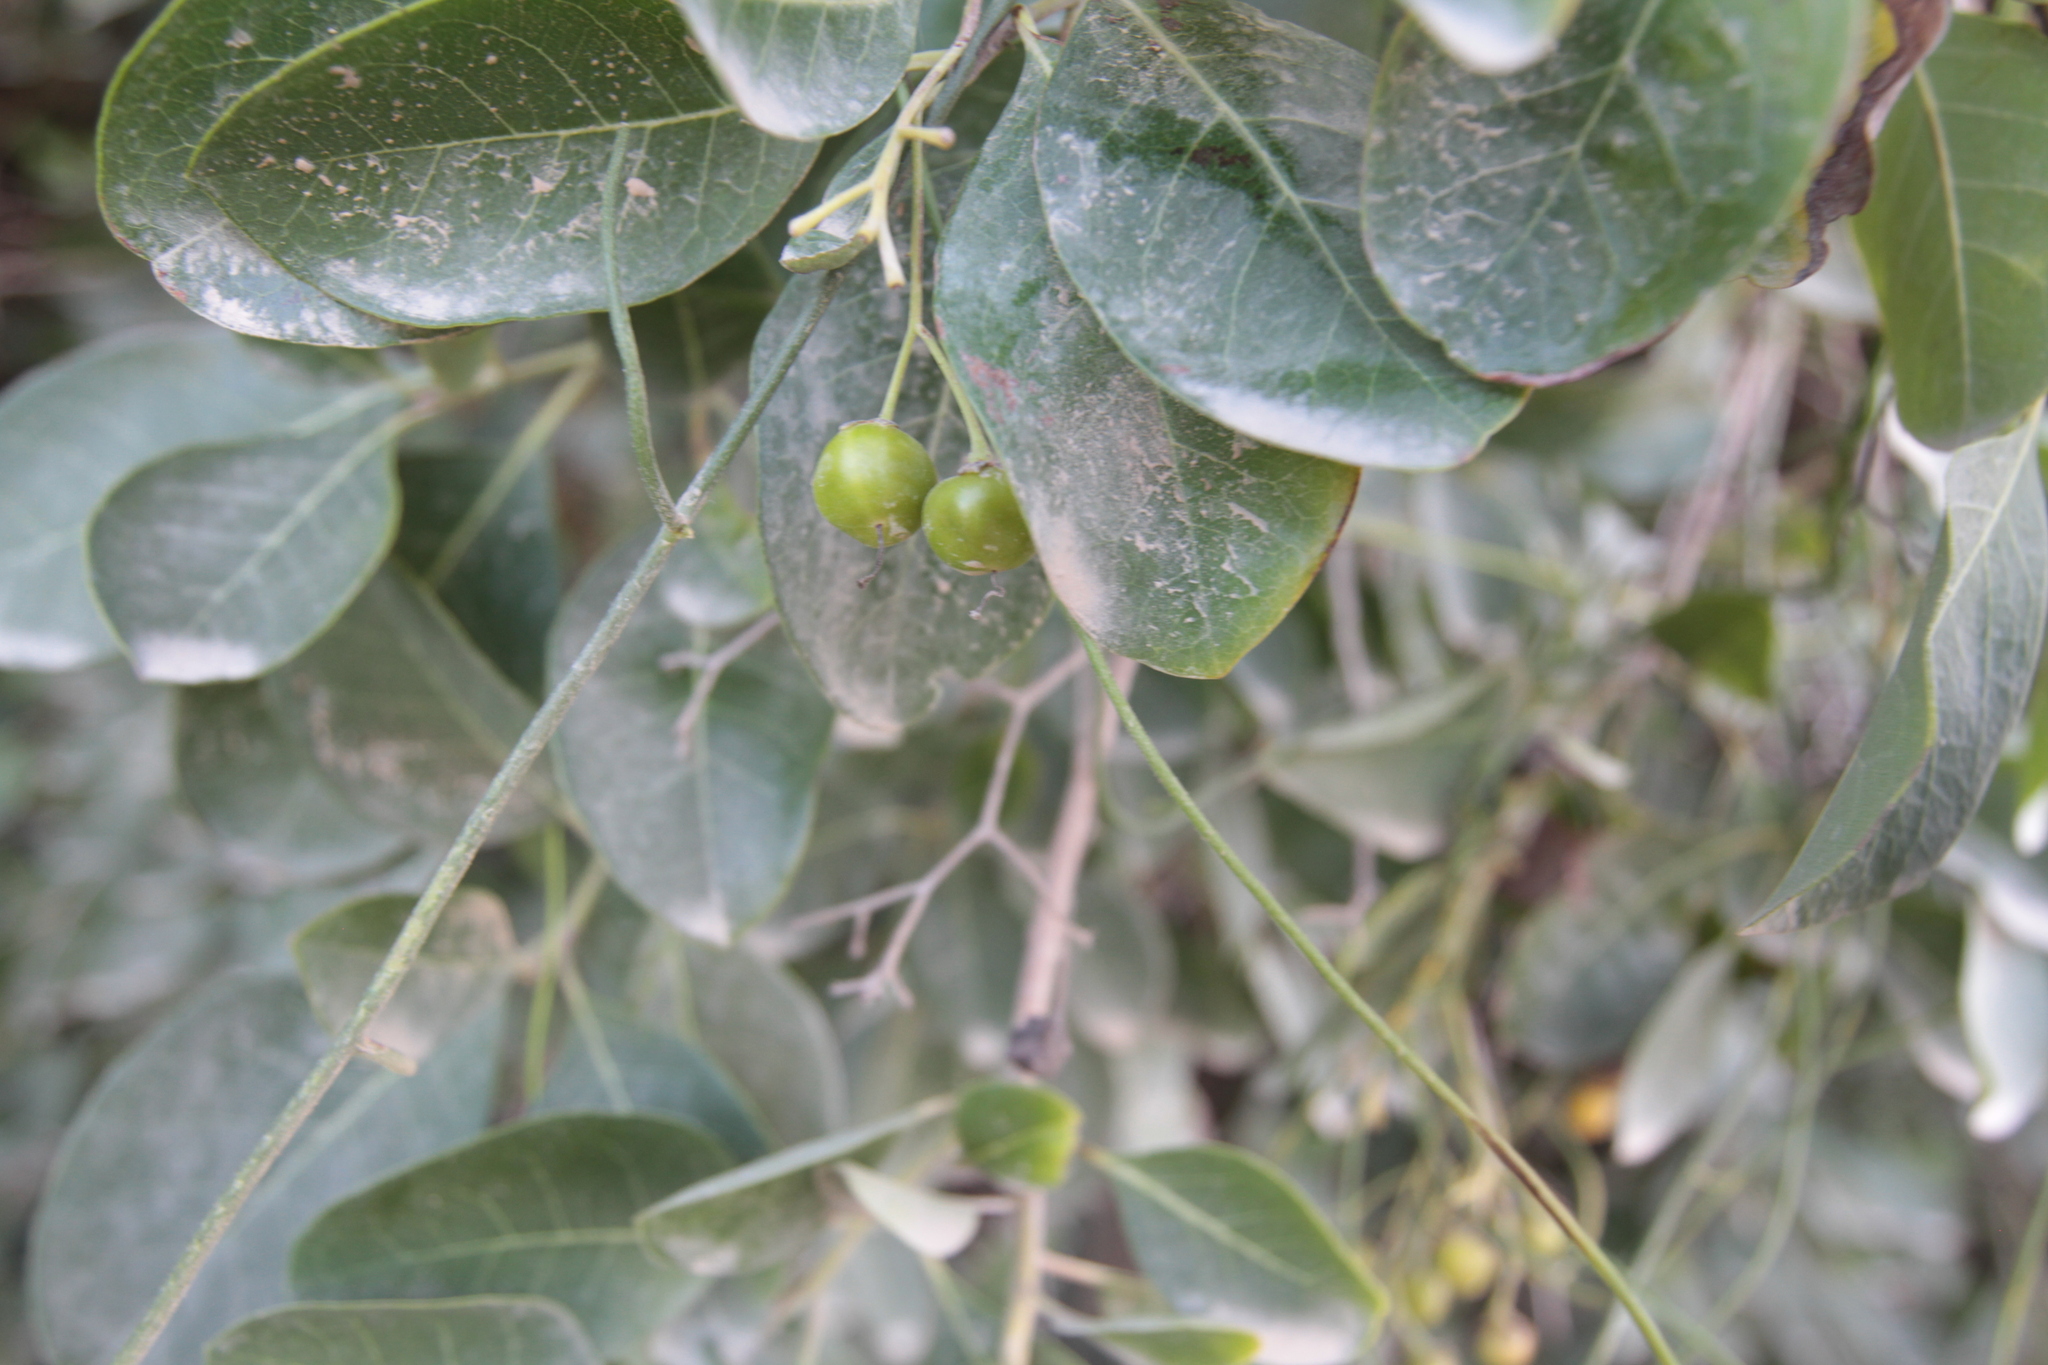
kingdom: Plantae
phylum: Tracheophyta
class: Magnoliopsida
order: Boraginales
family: Ehretiaceae
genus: Bourreria
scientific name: Bourreria succulenta
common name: Cherry
